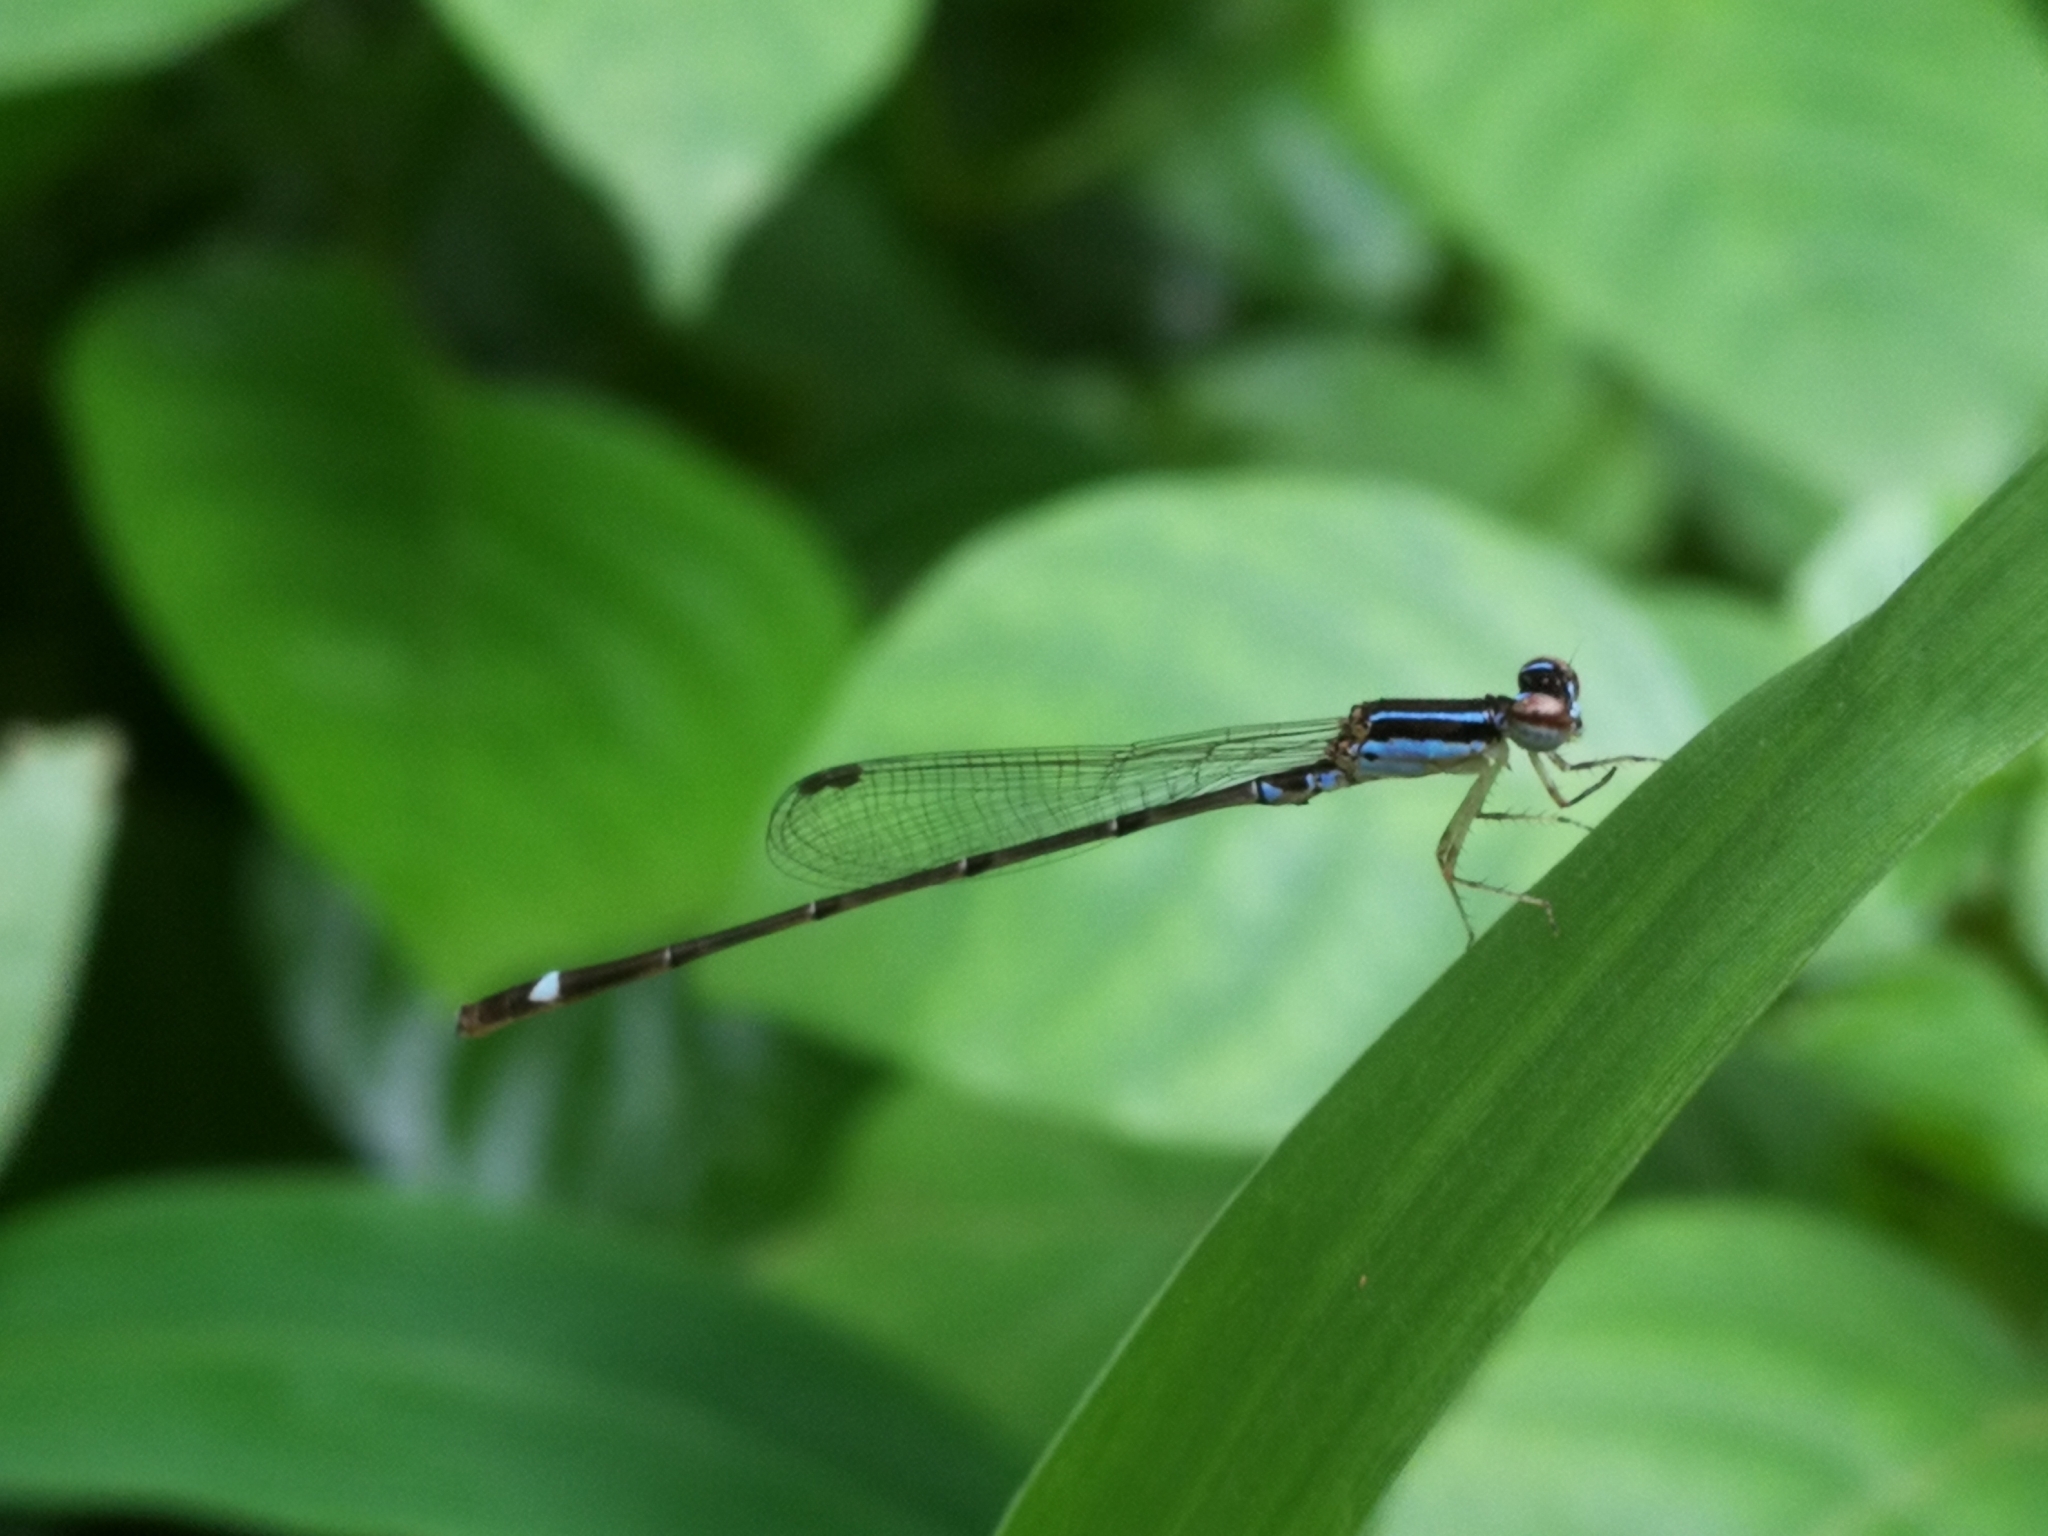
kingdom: Animalia
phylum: Arthropoda
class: Insecta
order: Odonata
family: Coenagrionidae
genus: Mortonagrion
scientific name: Mortonagrion varralli
